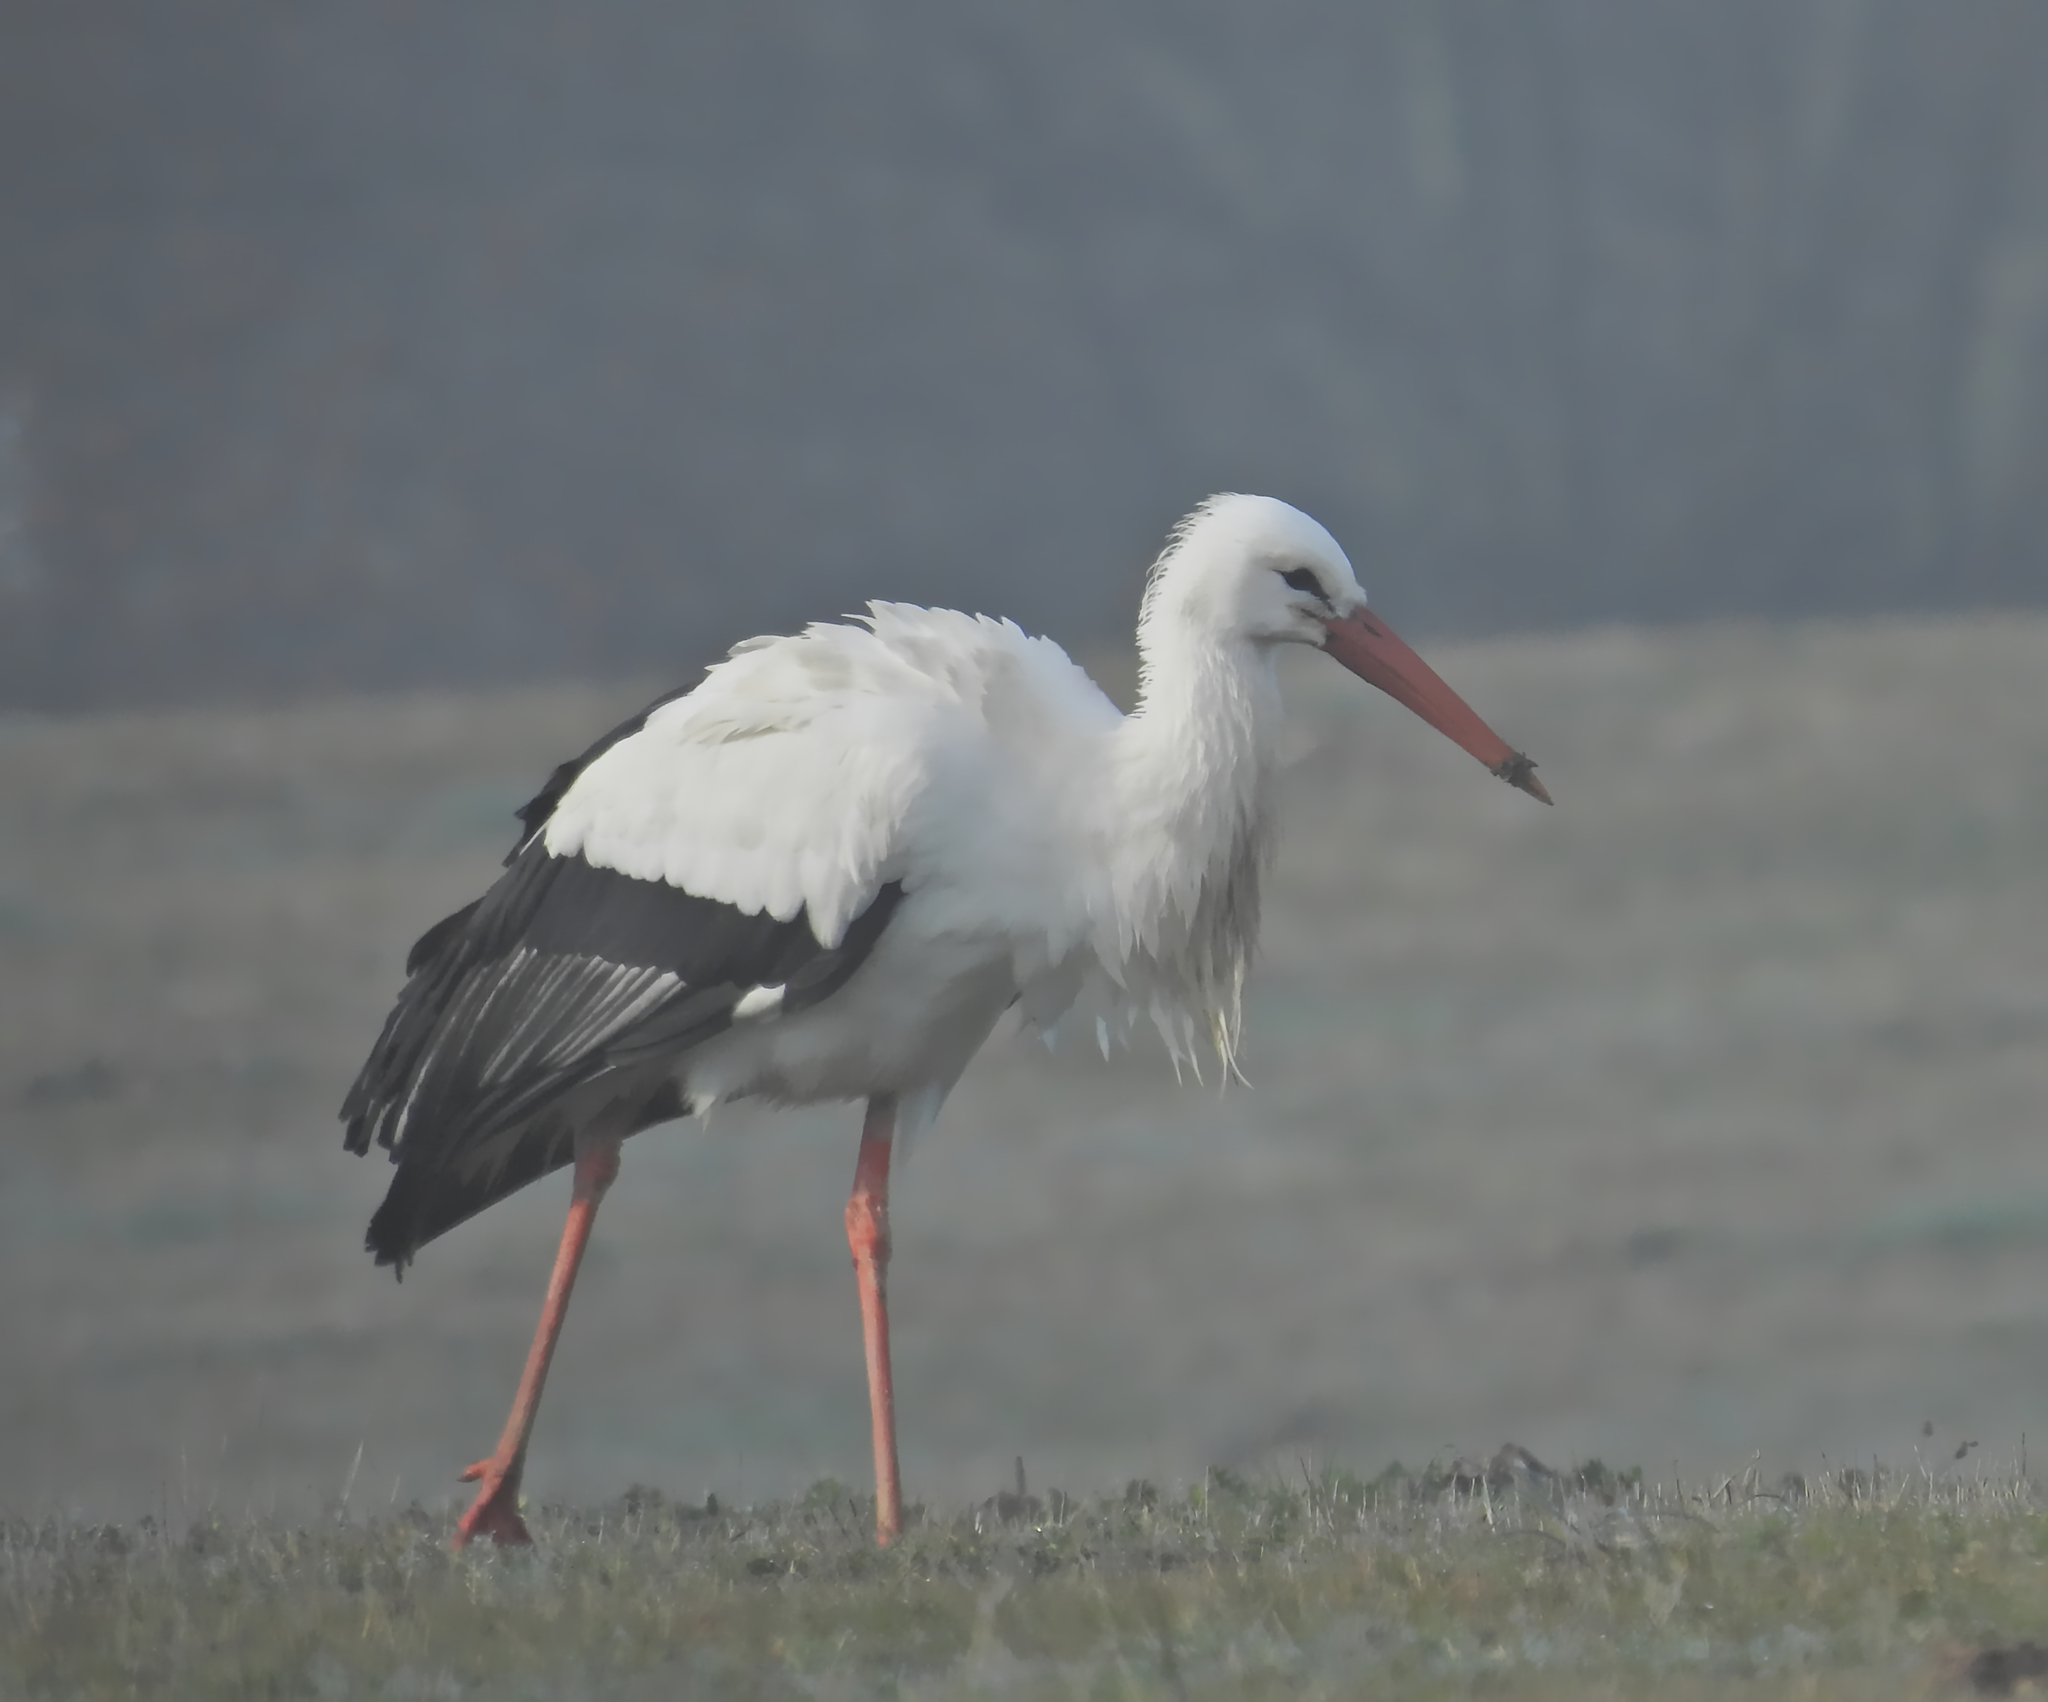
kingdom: Animalia
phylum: Chordata
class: Aves
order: Ciconiiformes
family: Ciconiidae
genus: Ciconia
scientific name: Ciconia ciconia
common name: White stork
